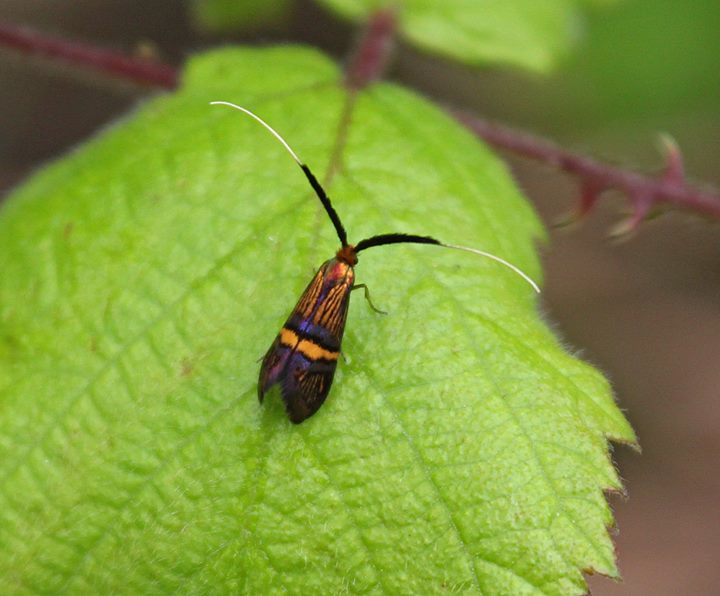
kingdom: Animalia
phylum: Arthropoda
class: Insecta
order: Lepidoptera
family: Adelidae
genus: Adela
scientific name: Adela croesella
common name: Small barred long-horn
